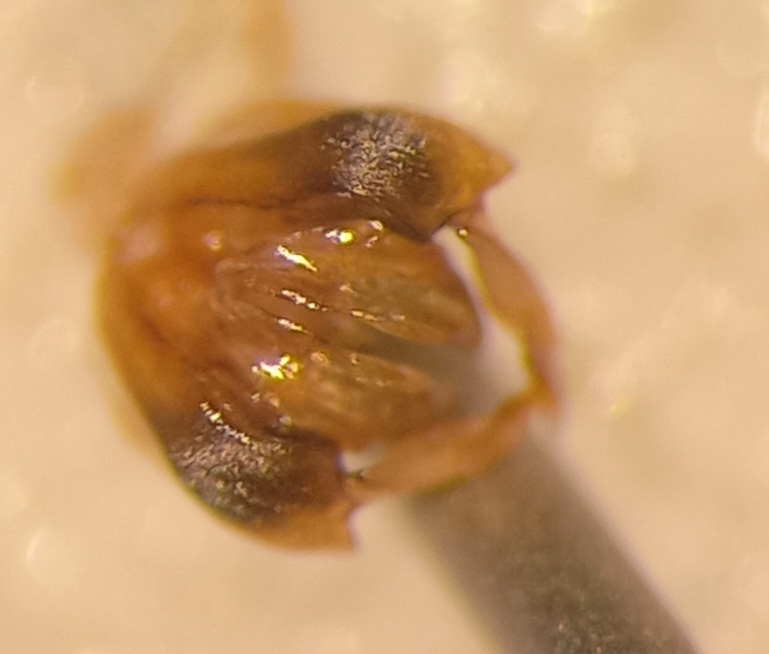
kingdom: Animalia
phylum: Arthropoda
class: Insecta
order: Hymenoptera
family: Halictidae
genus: Halictus
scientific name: Halictus simplex
